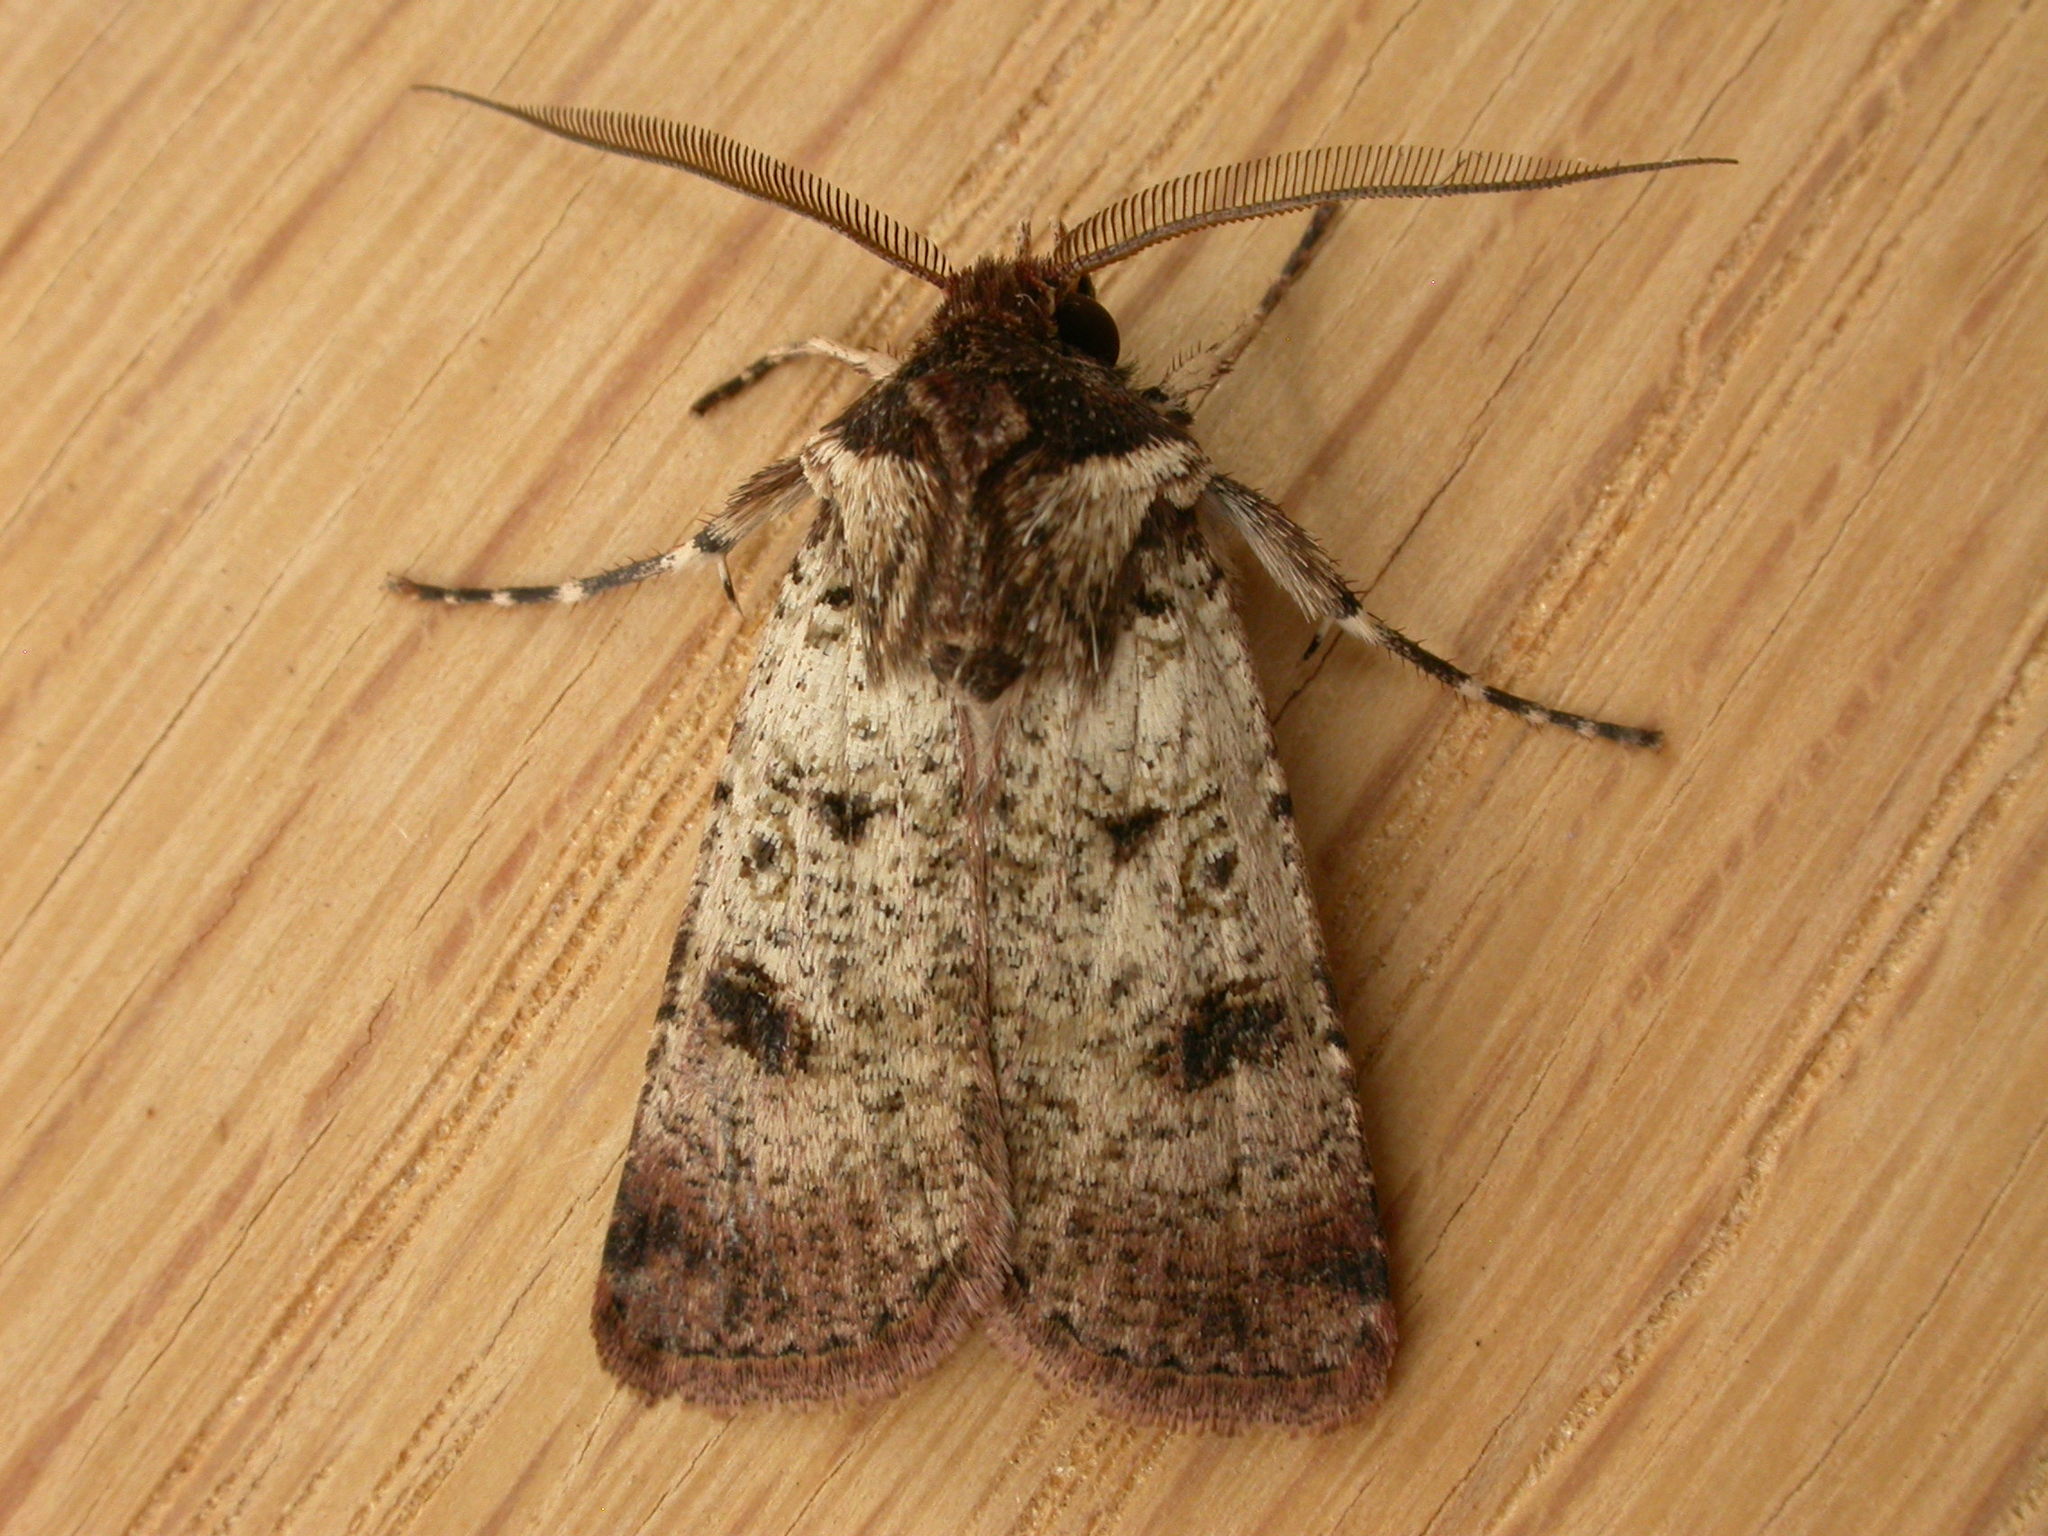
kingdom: Animalia
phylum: Arthropoda
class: Insecta
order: Lepidoptera
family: Noctuidae
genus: Agrotis
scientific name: Agrotis porphyricollis
